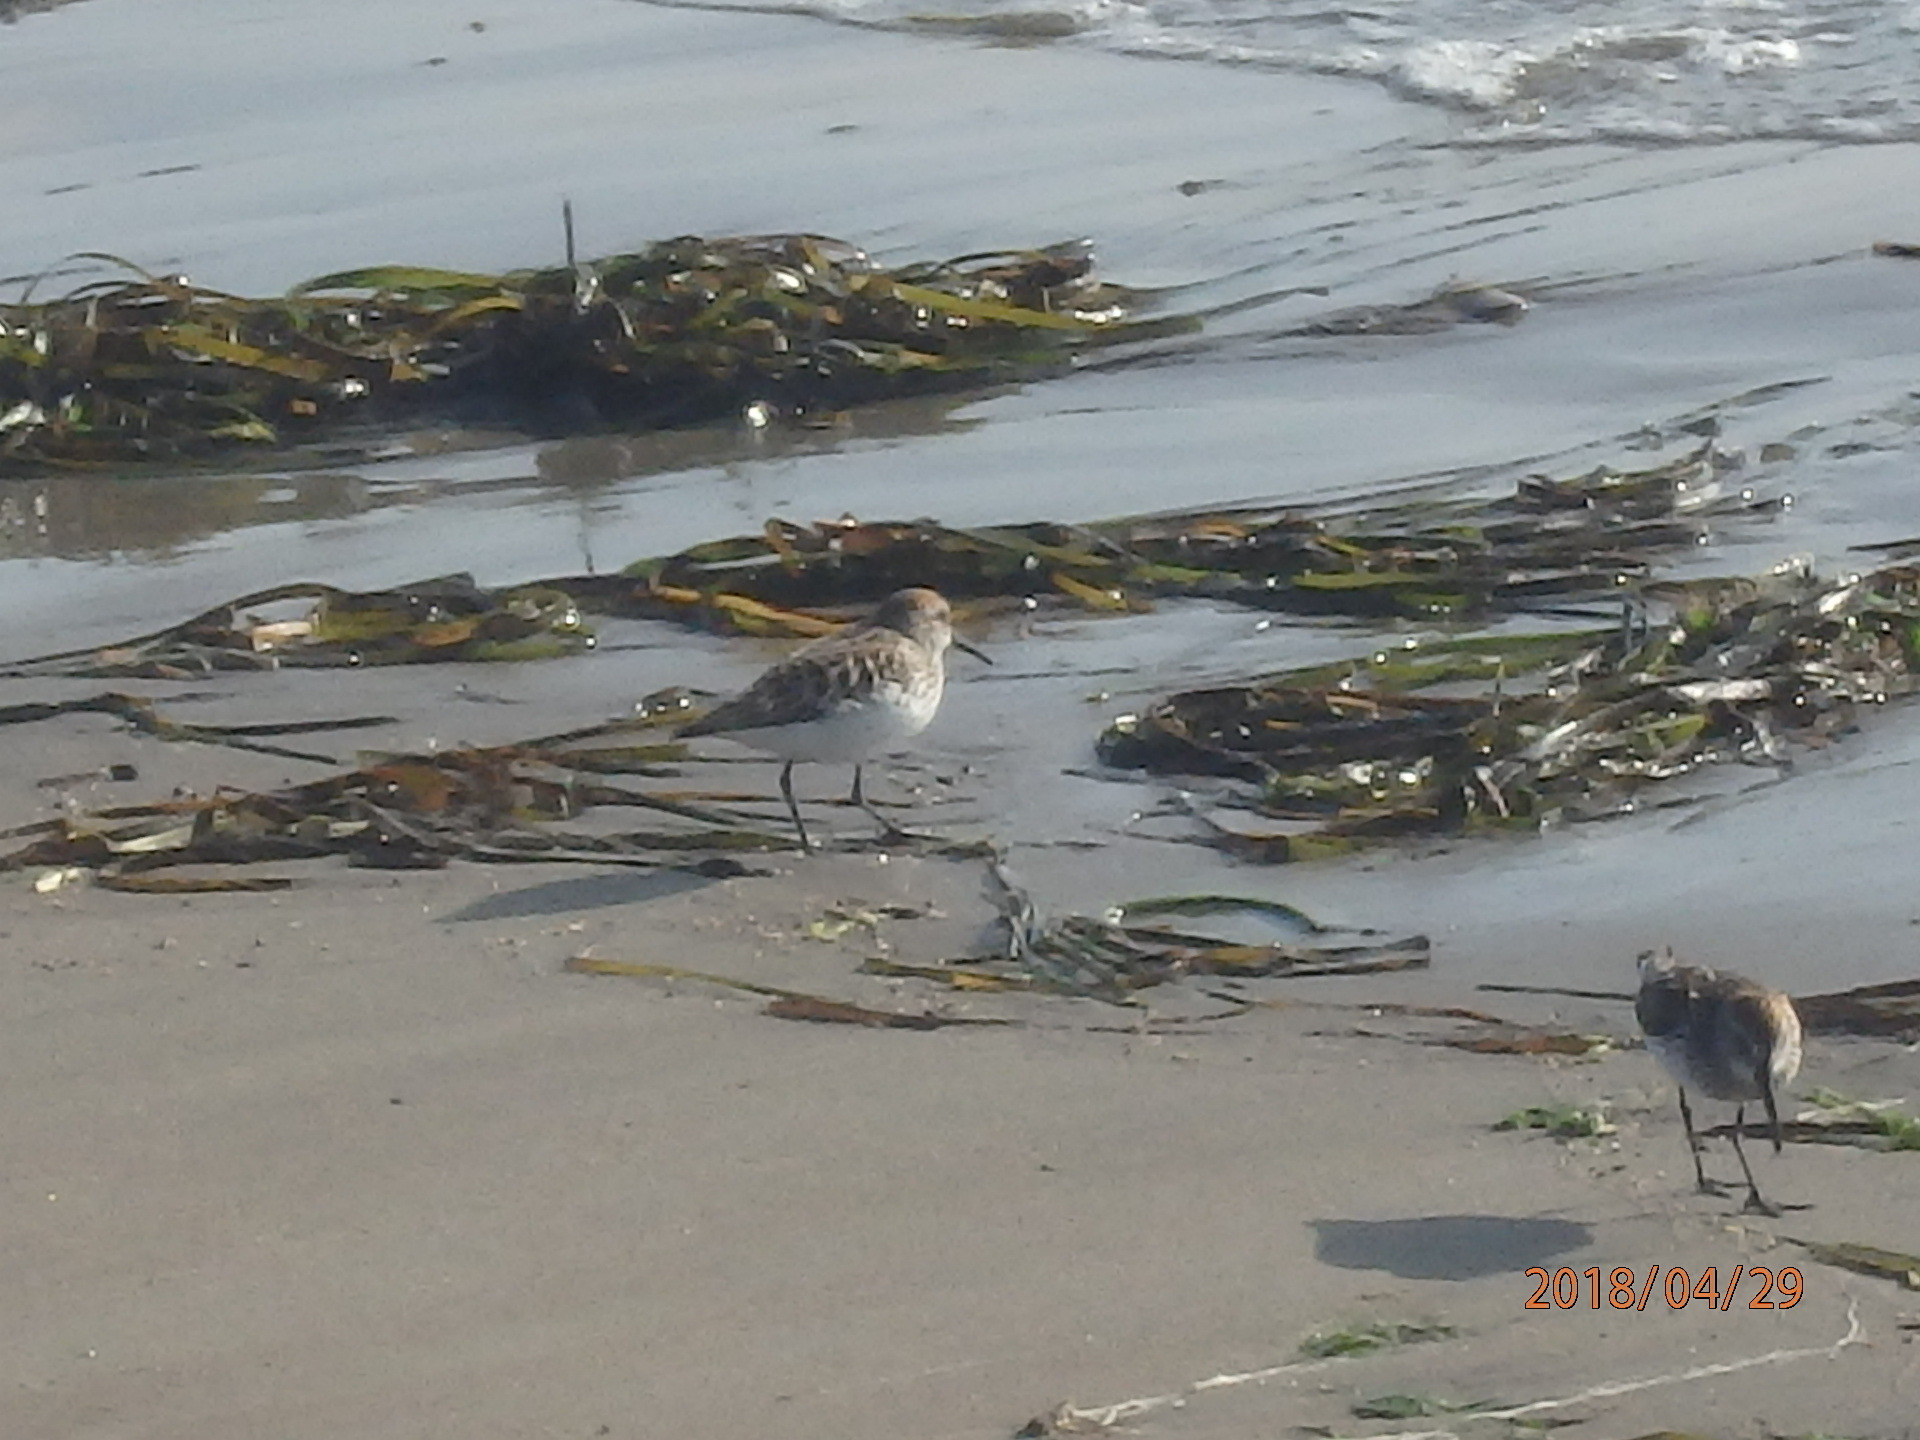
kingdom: Animalia
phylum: Chordata
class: Aves
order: Charadriiformes
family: Scolopacidae
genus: Calidris
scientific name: Calidris mauri
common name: Western sandpiper
